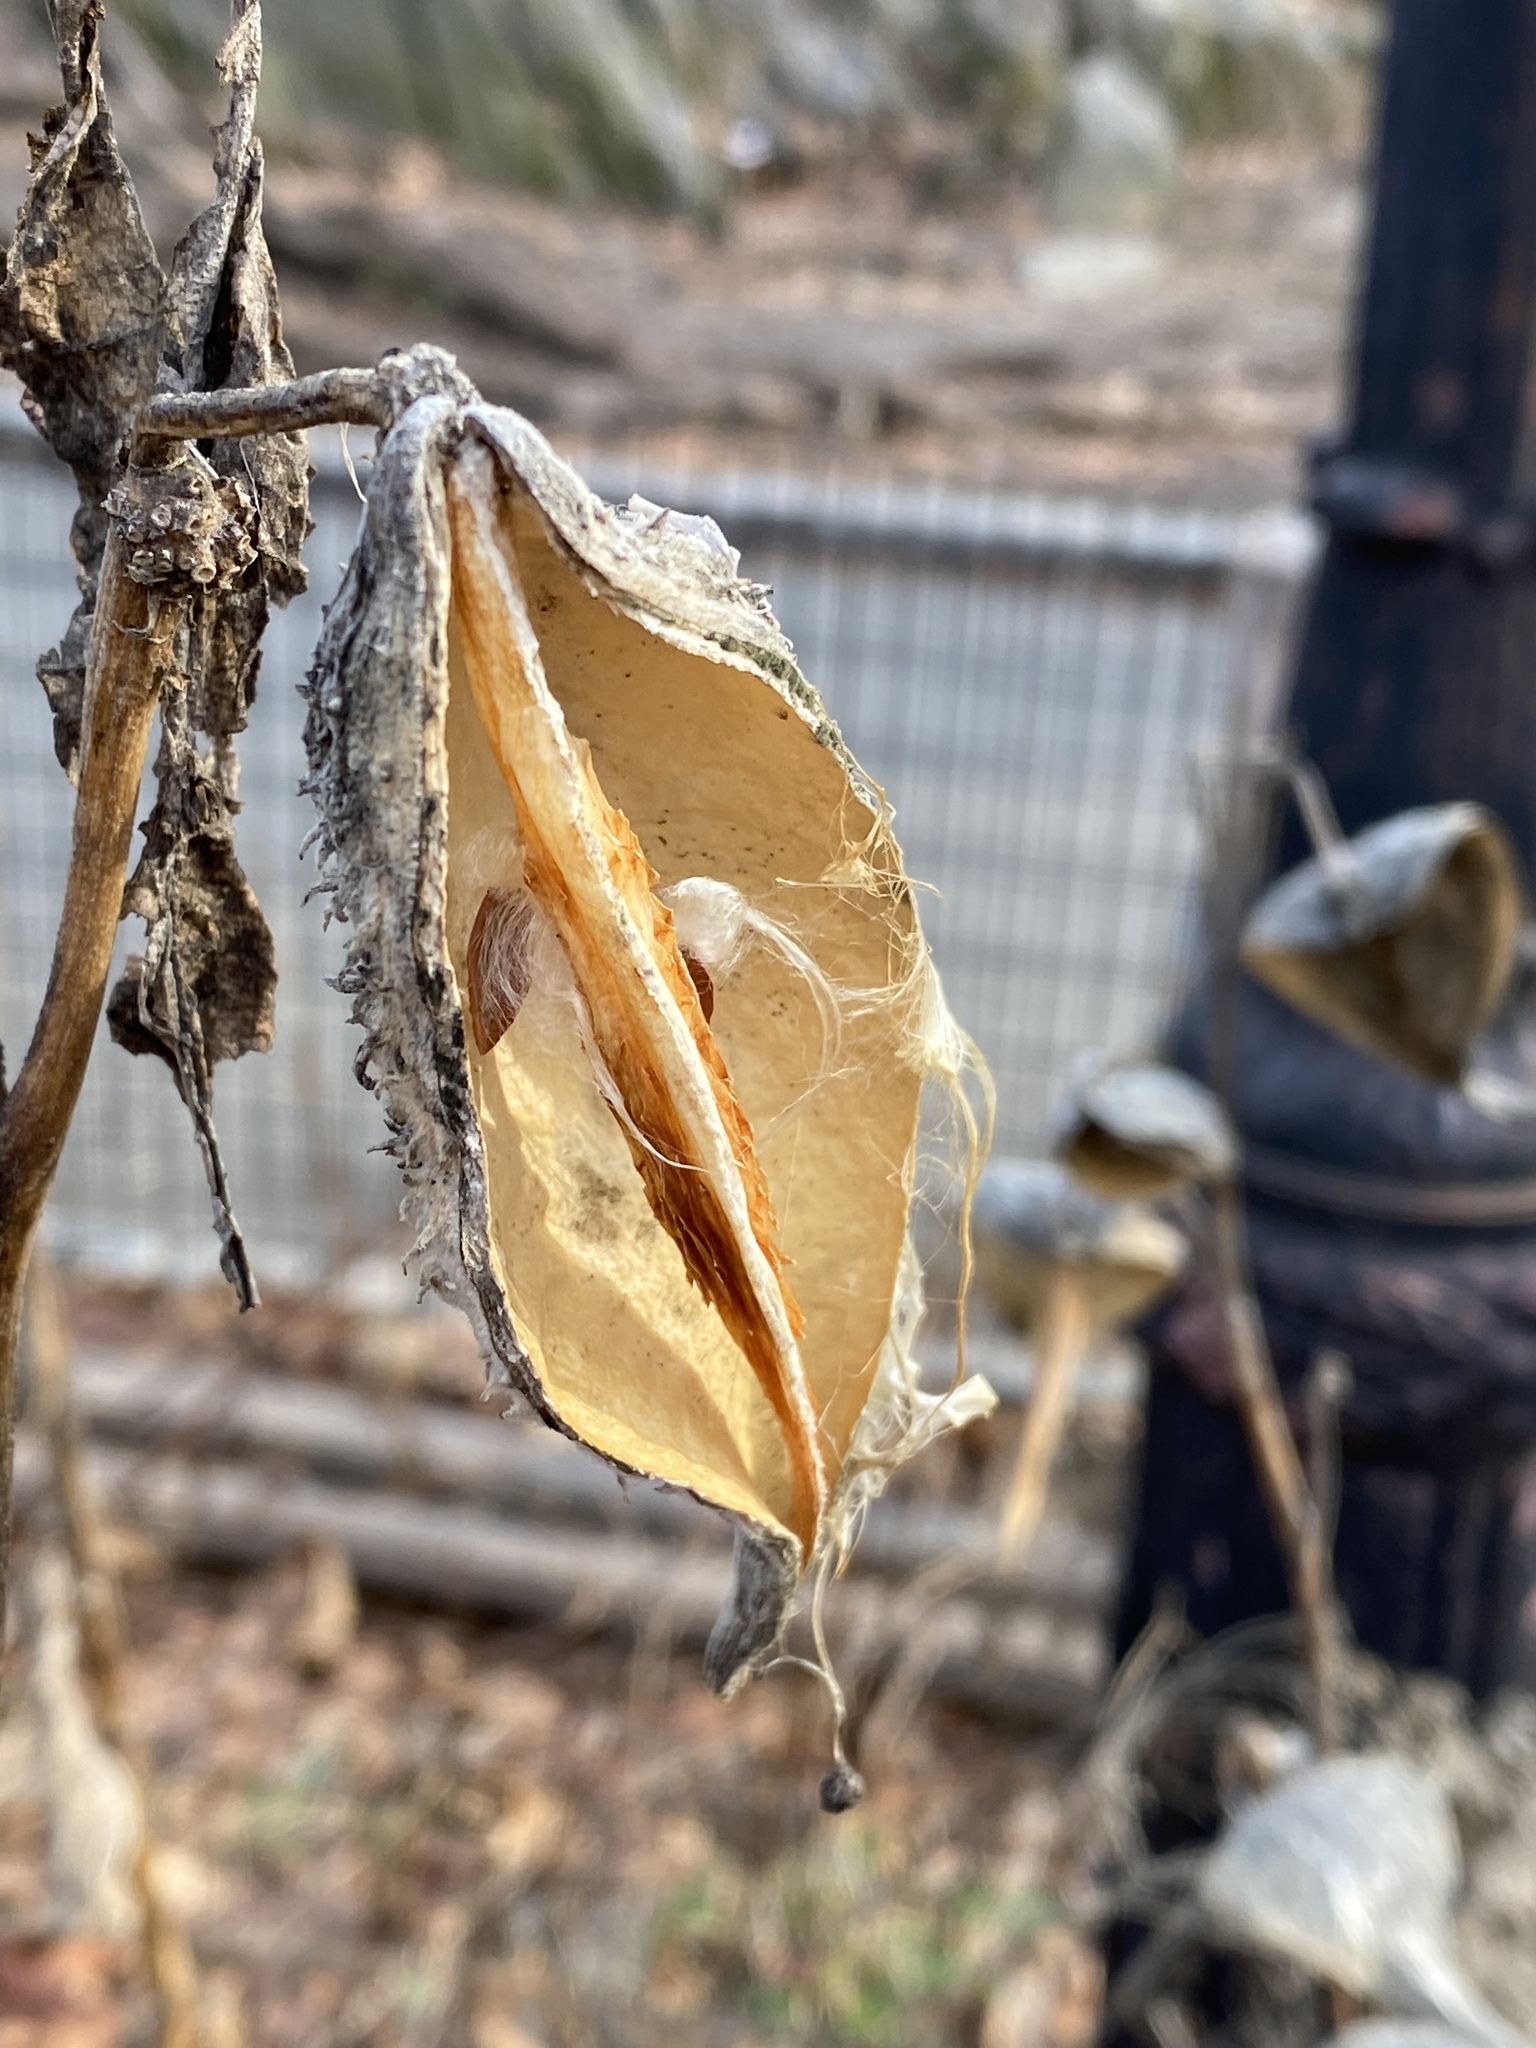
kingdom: Plantae
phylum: Tracheophyta
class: Magnoliopsida
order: Gentianales
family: Apocynaceae
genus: Asclepias
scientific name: Asclepias syriaca
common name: Common milkweed
